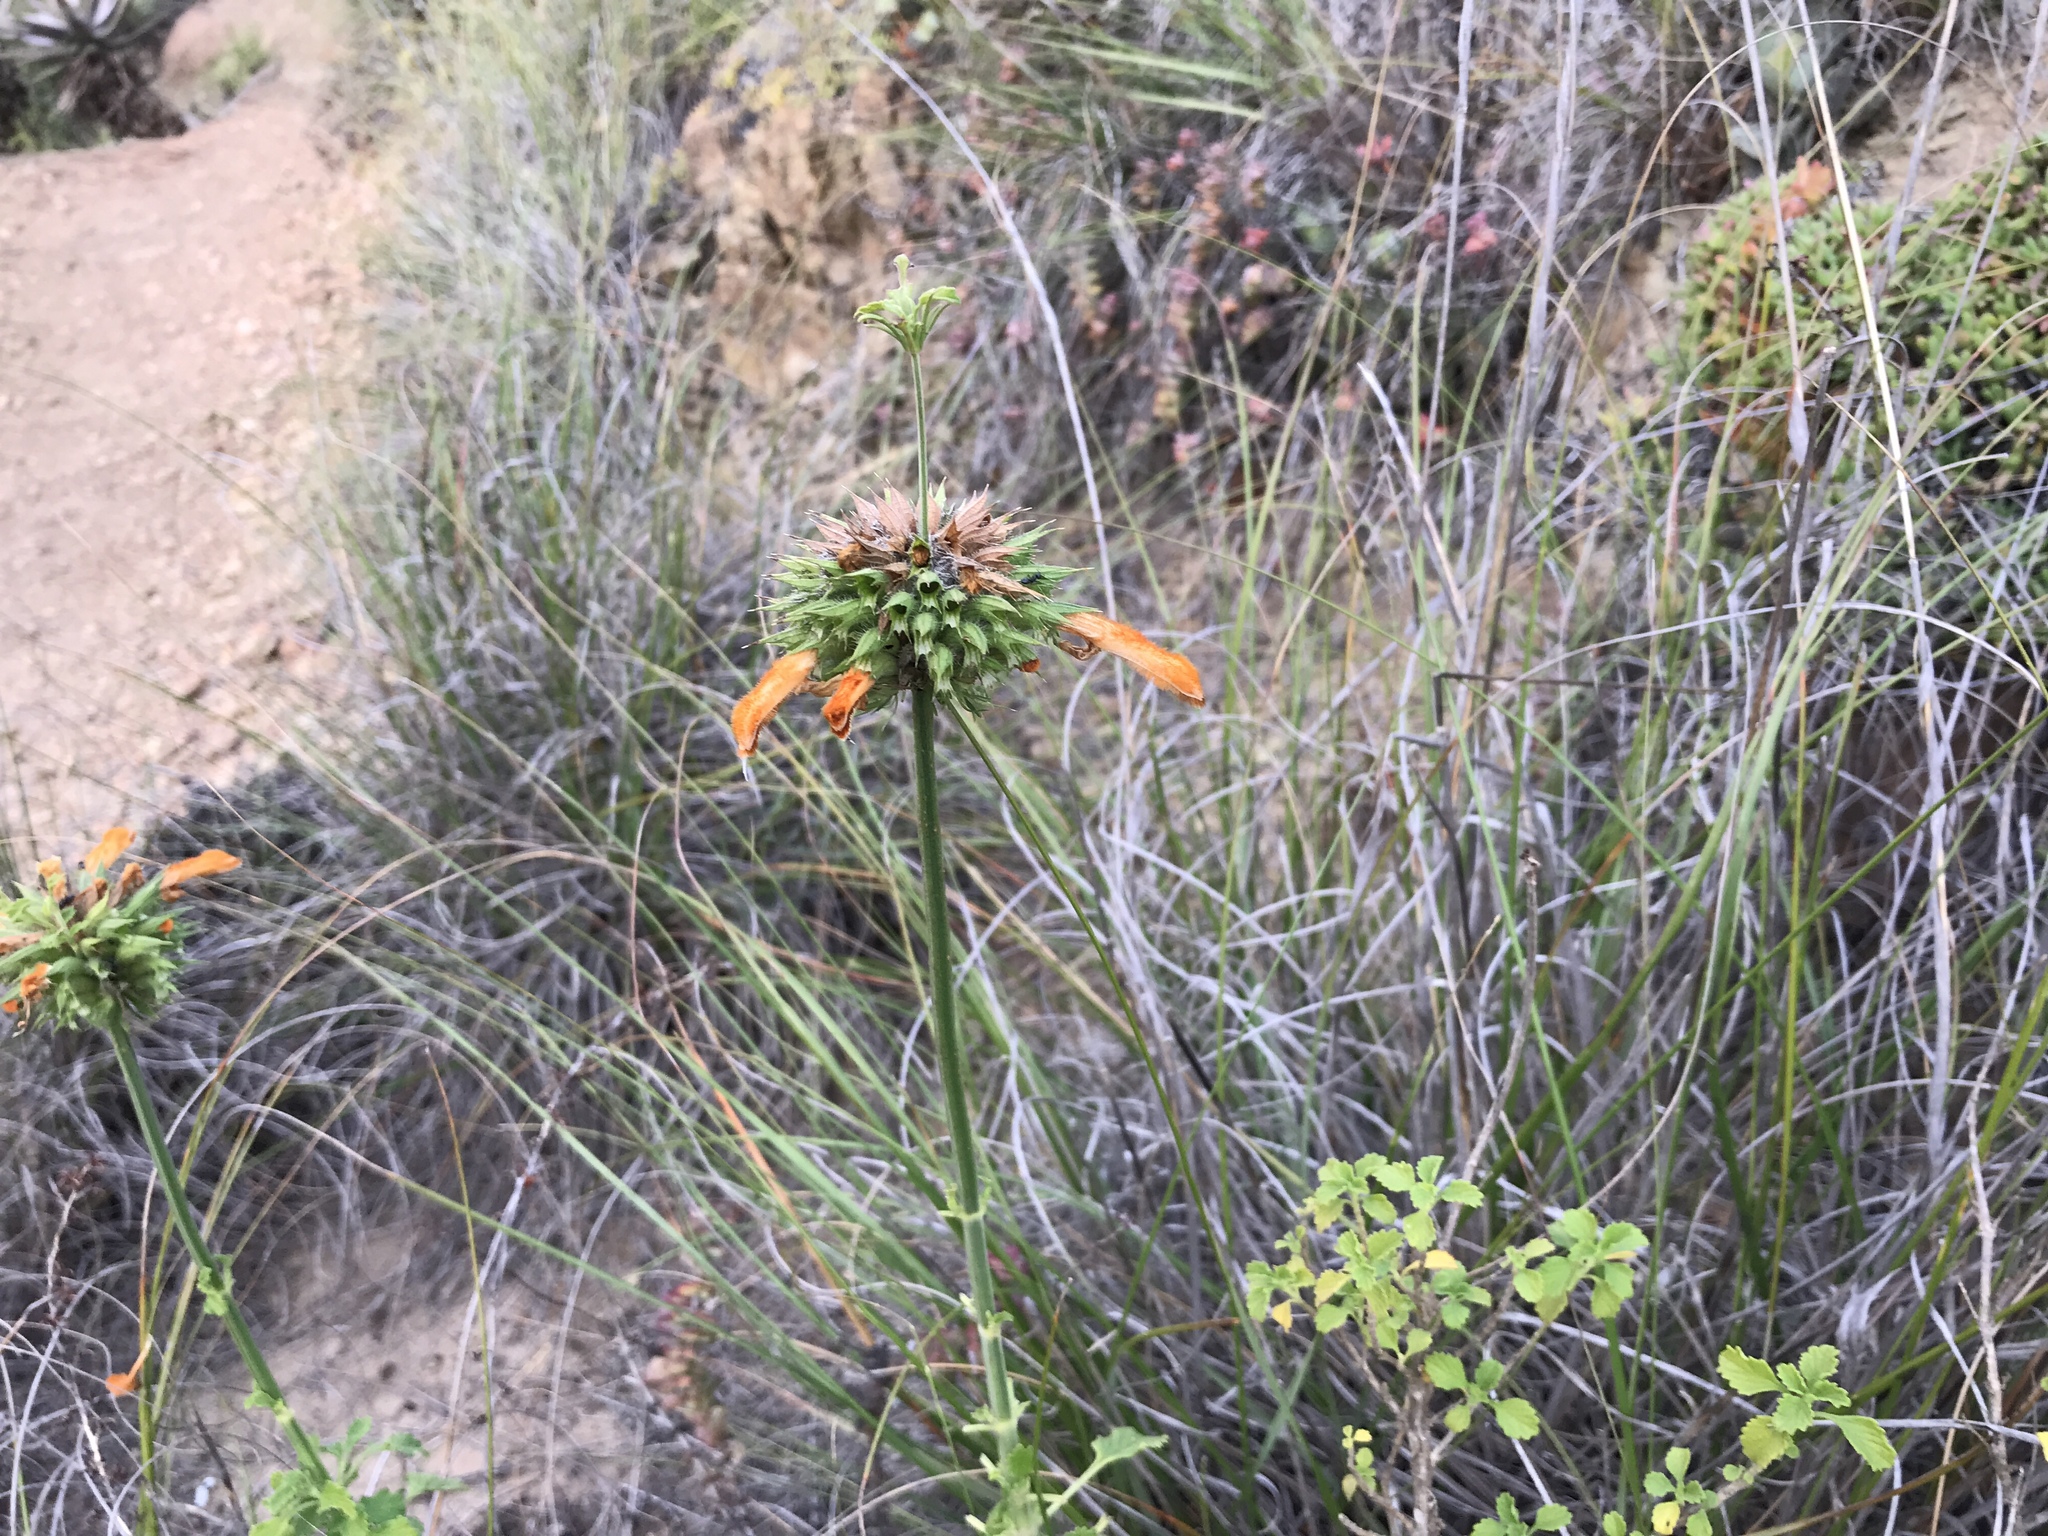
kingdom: Plantae
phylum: Tracheophyta
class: Magnoliopsida
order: Lamiales
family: Lamiaceae
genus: Leonotis
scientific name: Leonotis ocymifolia
